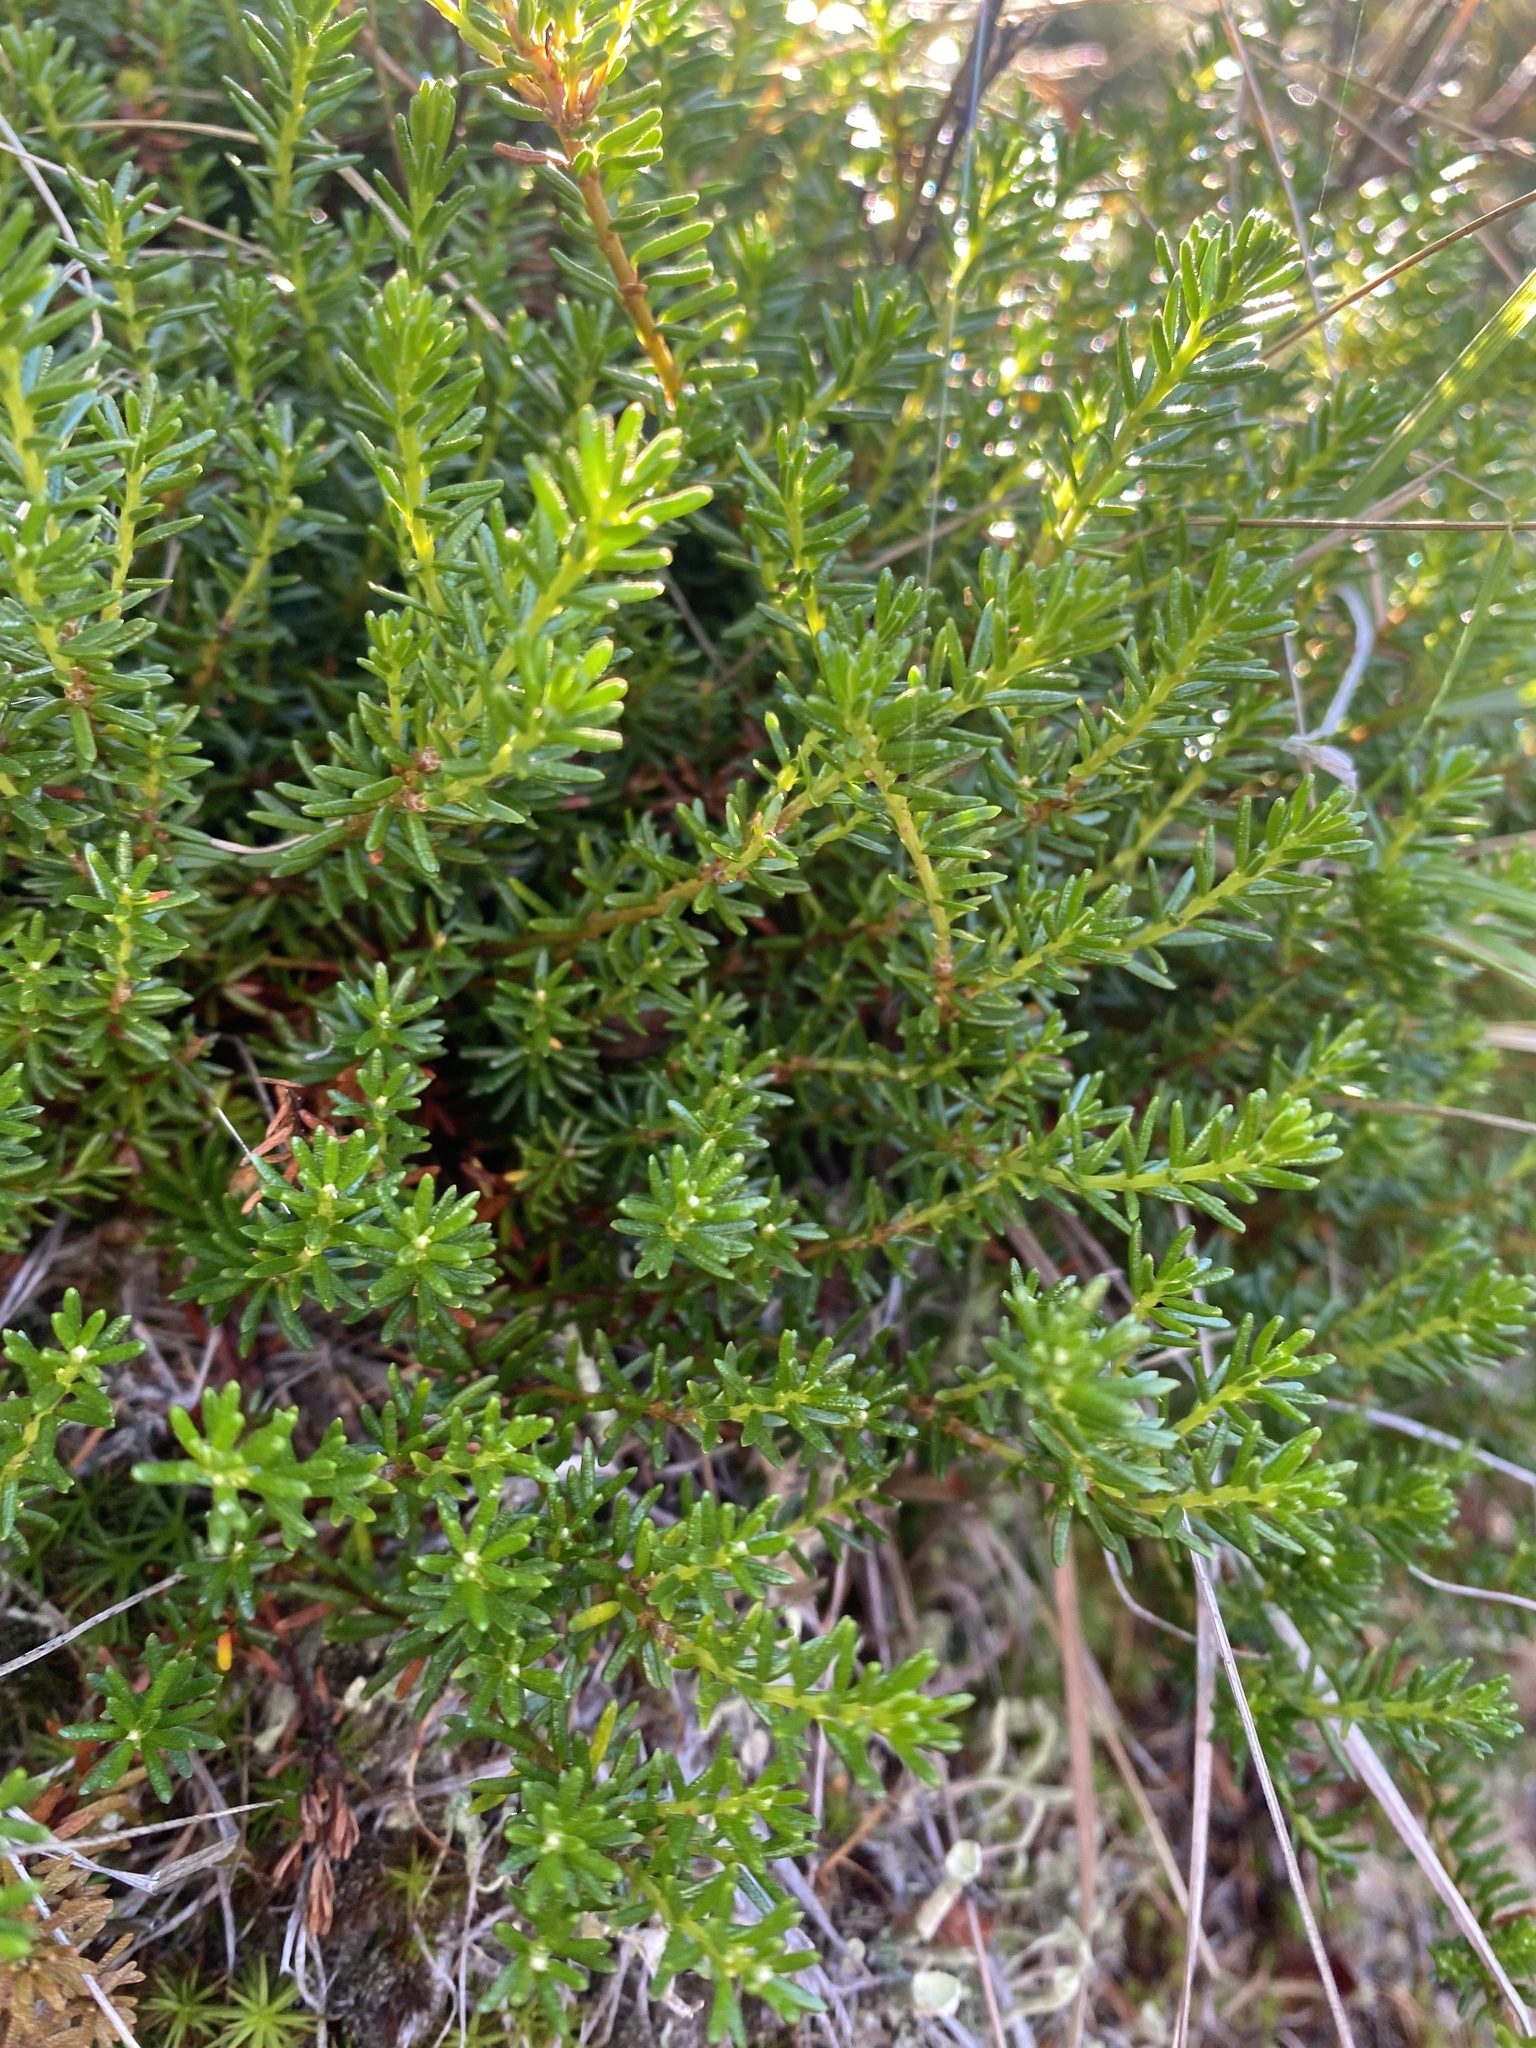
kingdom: Plantae
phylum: Tracheophyta
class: Magnoliopsida
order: Ericales
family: Ericaceae
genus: Empetrum
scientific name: Empetrum nigrum
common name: Black crowberry
